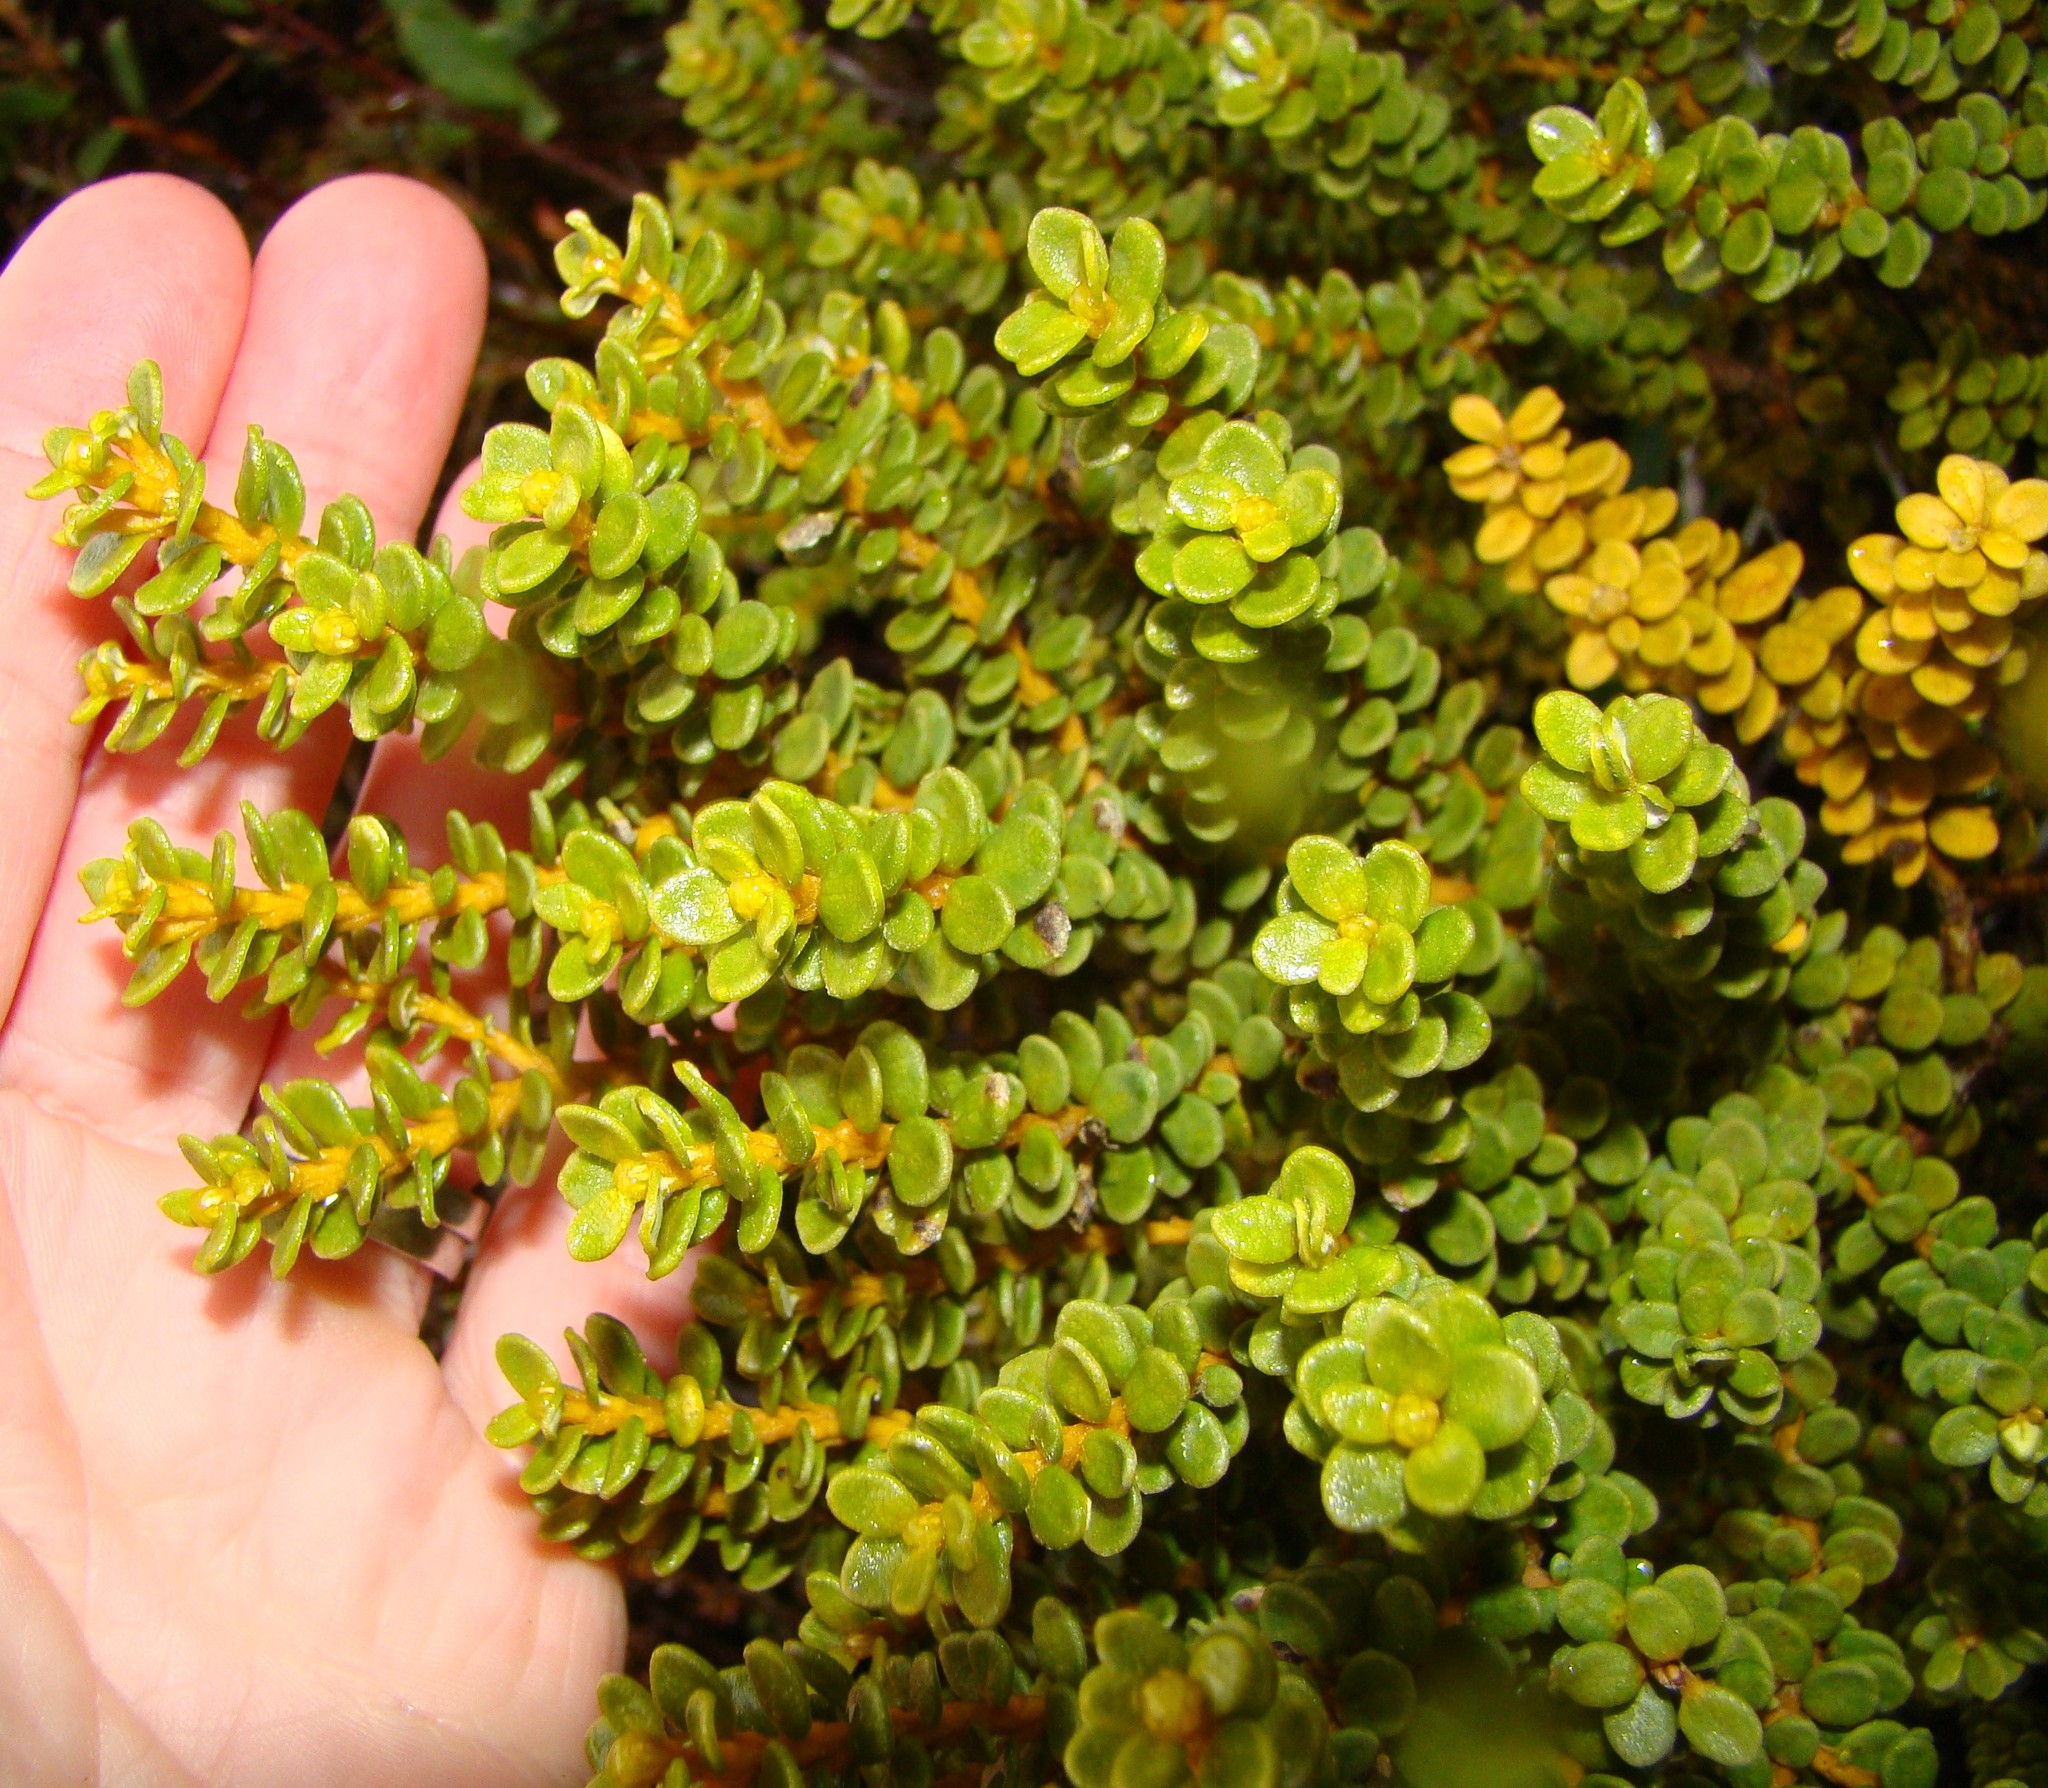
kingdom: Plantae
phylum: Tracheophyta
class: Magnoliopsida
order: Asterales
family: Asteraceae
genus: Ozothamnus
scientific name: Ozothamnus leptophyllus
